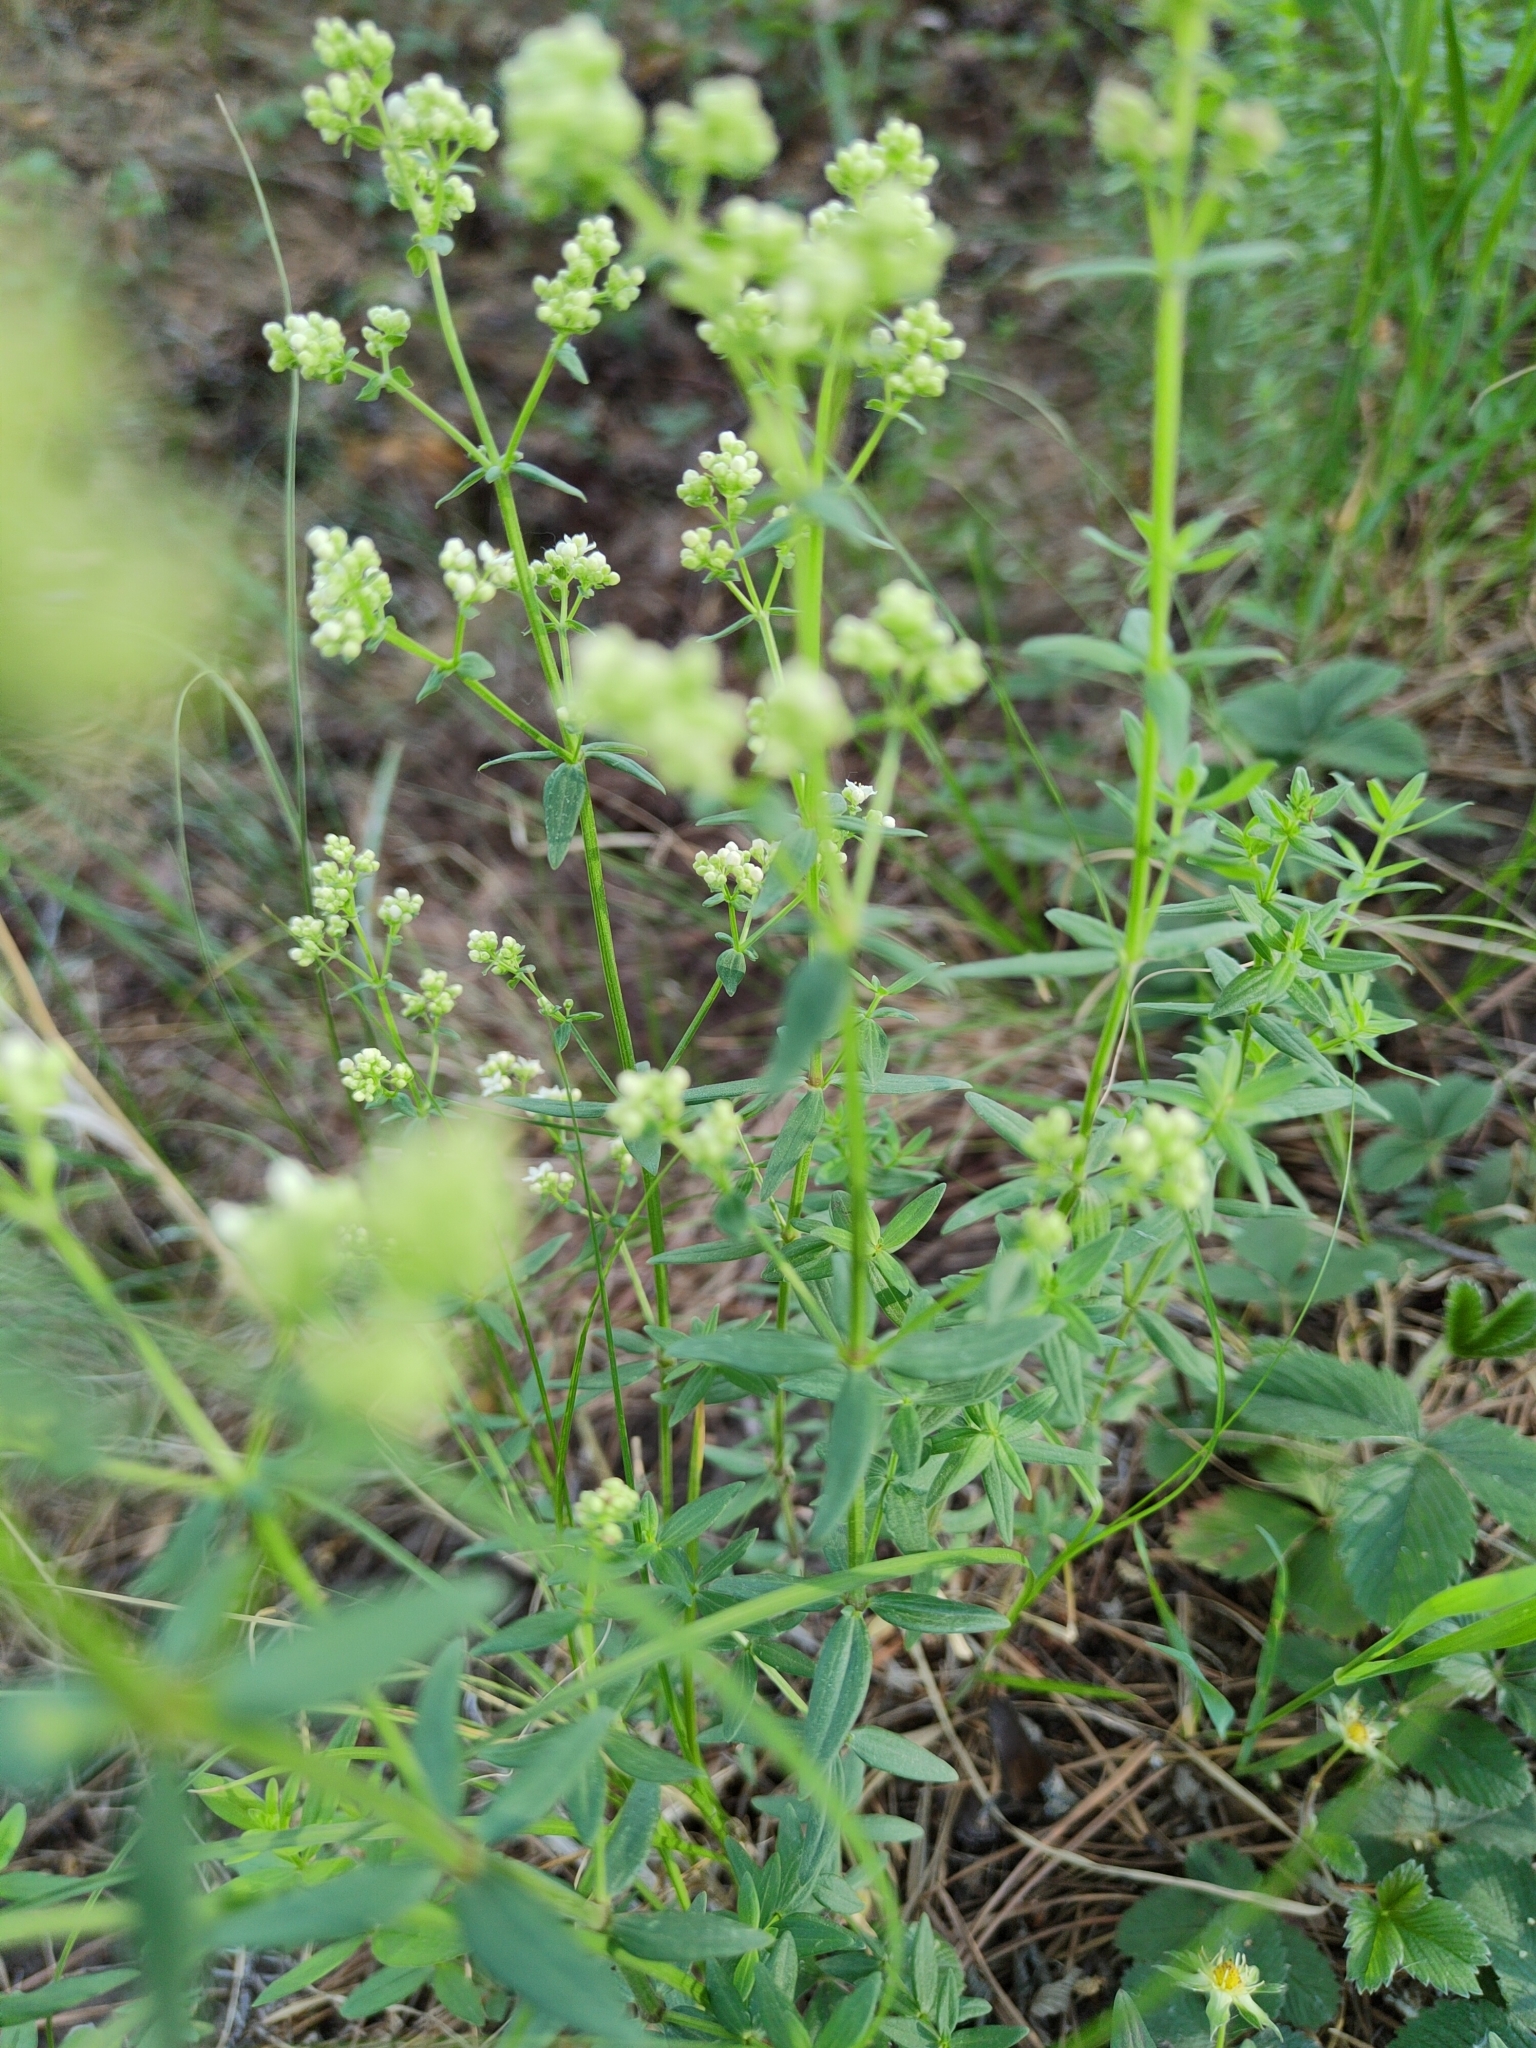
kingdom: Plantae
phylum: Tracheophyta
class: Magnoliopsida
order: Gentianales
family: Rubiaceae
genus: Galium
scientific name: Galium boreale
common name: Northern bedstraw
